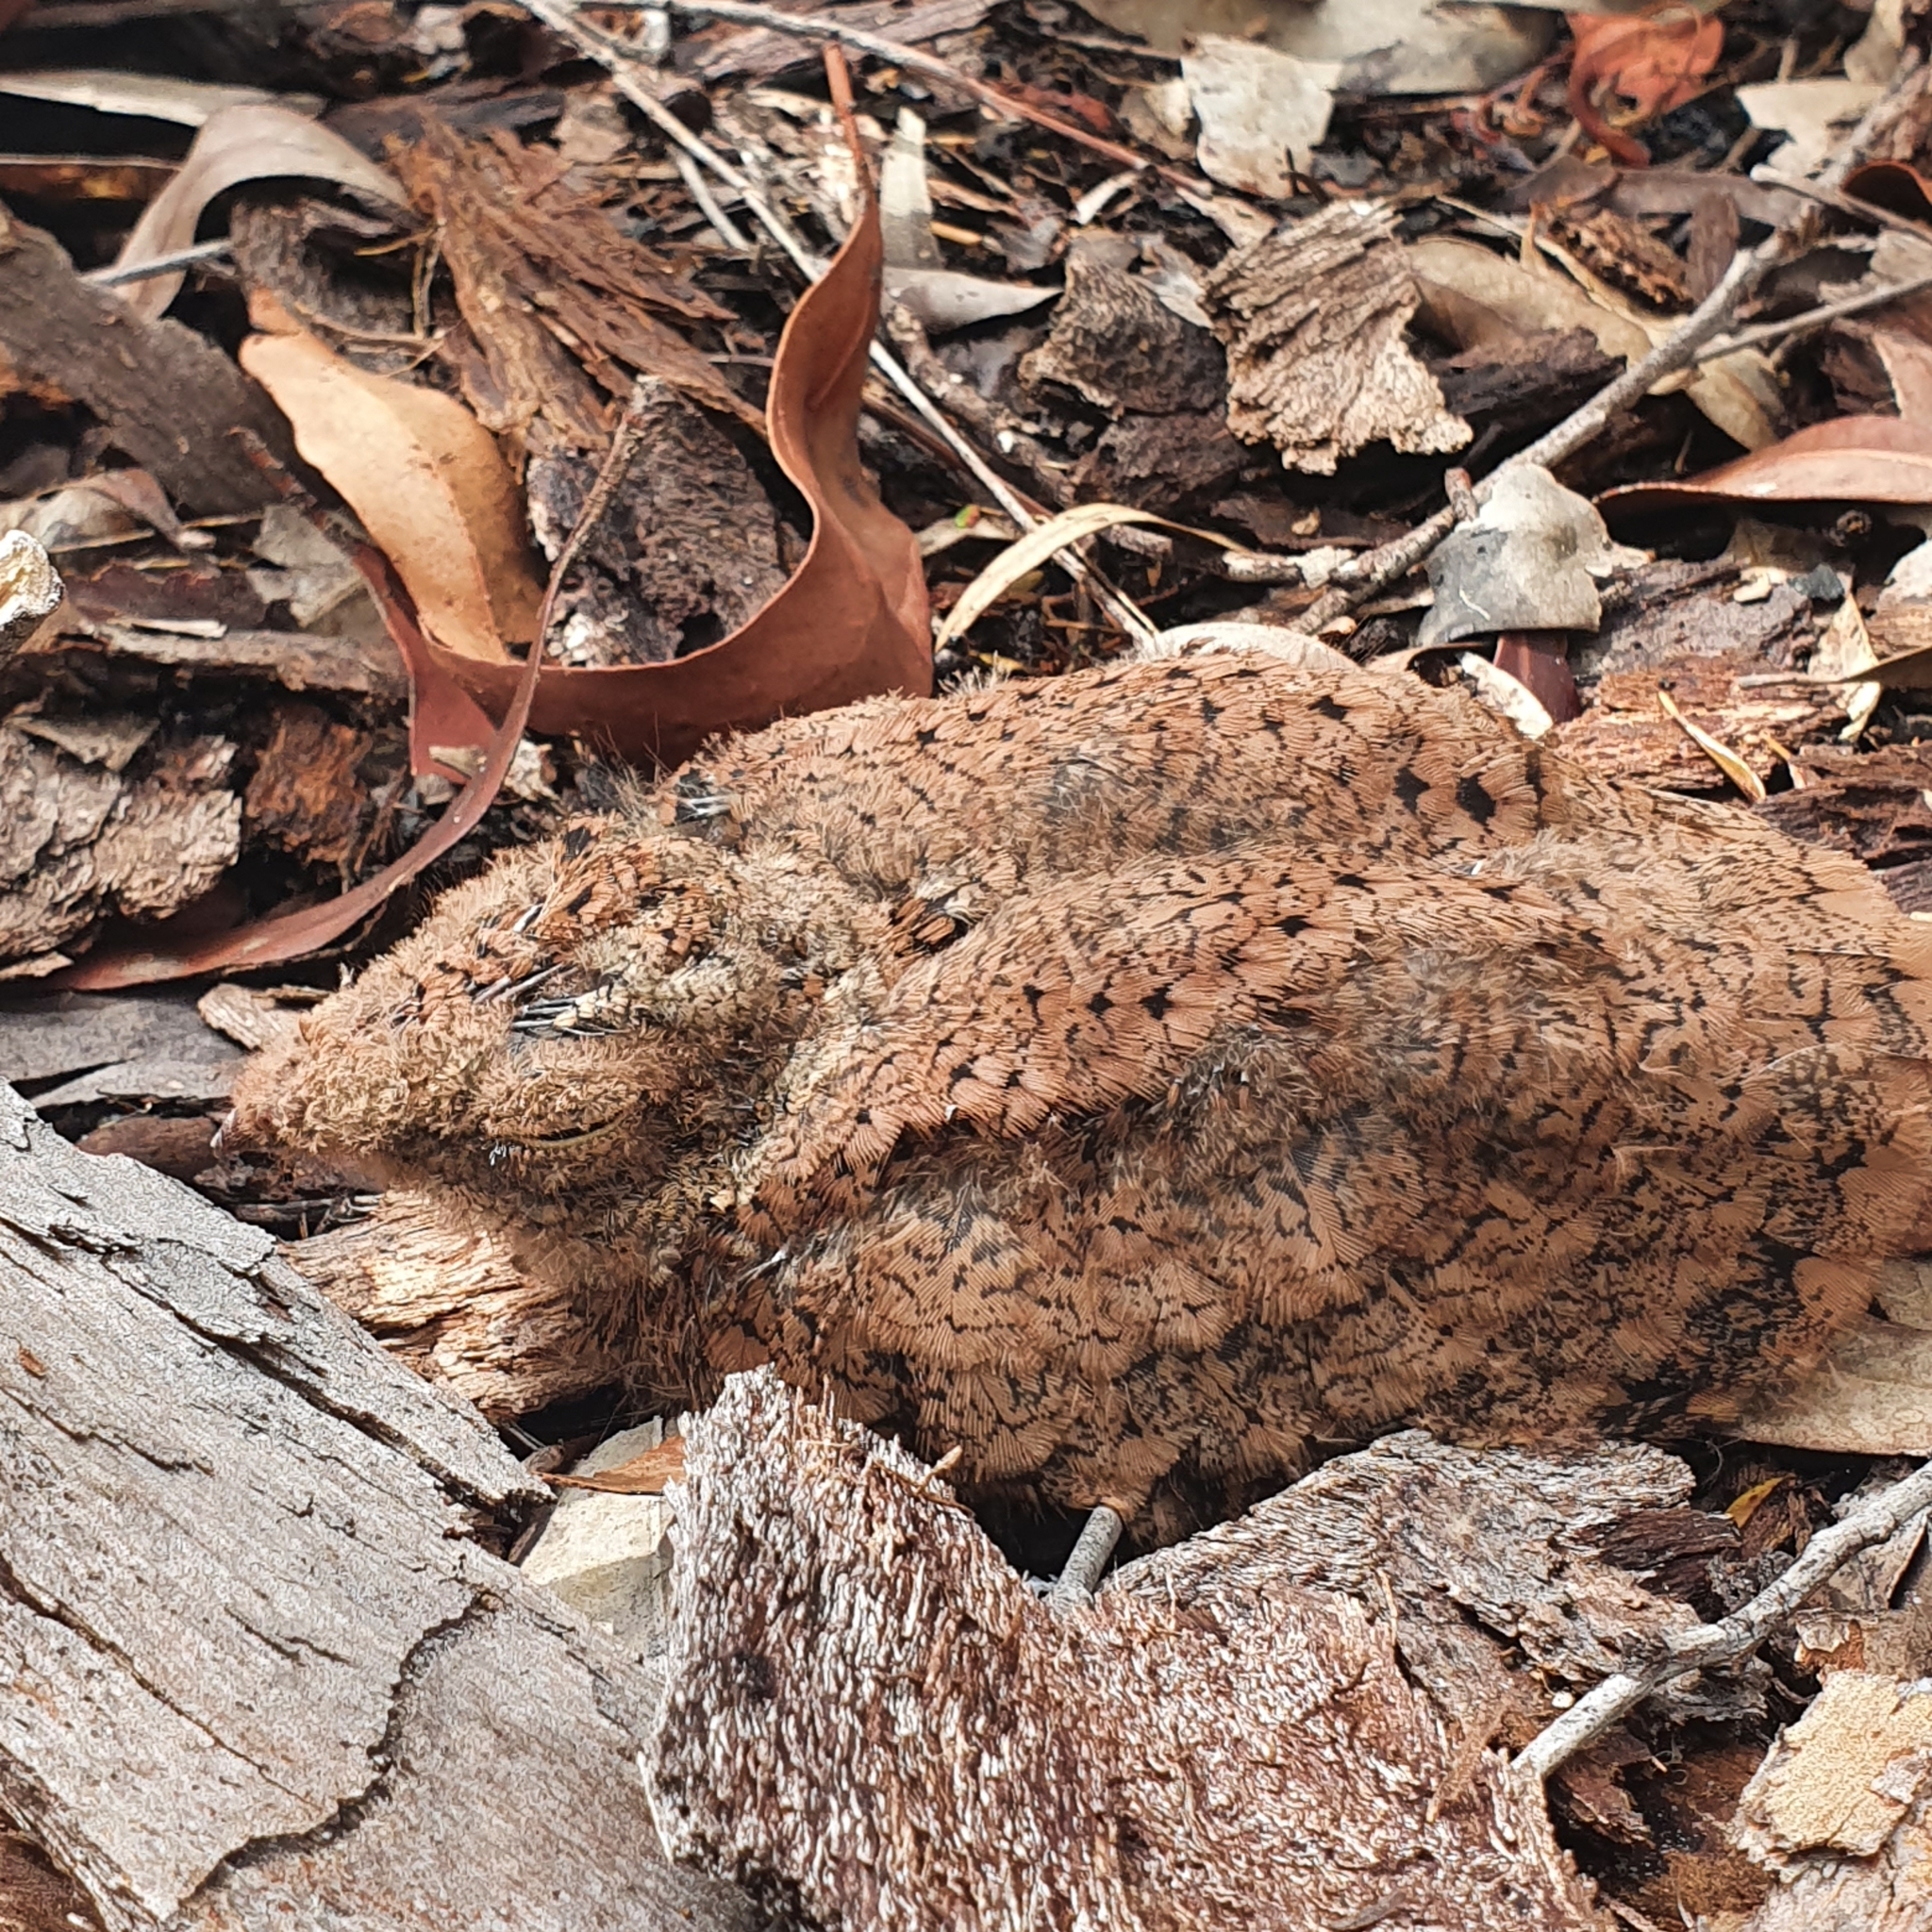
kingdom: Animalia
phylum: Chordata
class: Aves
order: Caprimulgiformes
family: Caprimulgidae
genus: Eurostopodus
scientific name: Eurostopodus mystacalis
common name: White-throated nightjar
